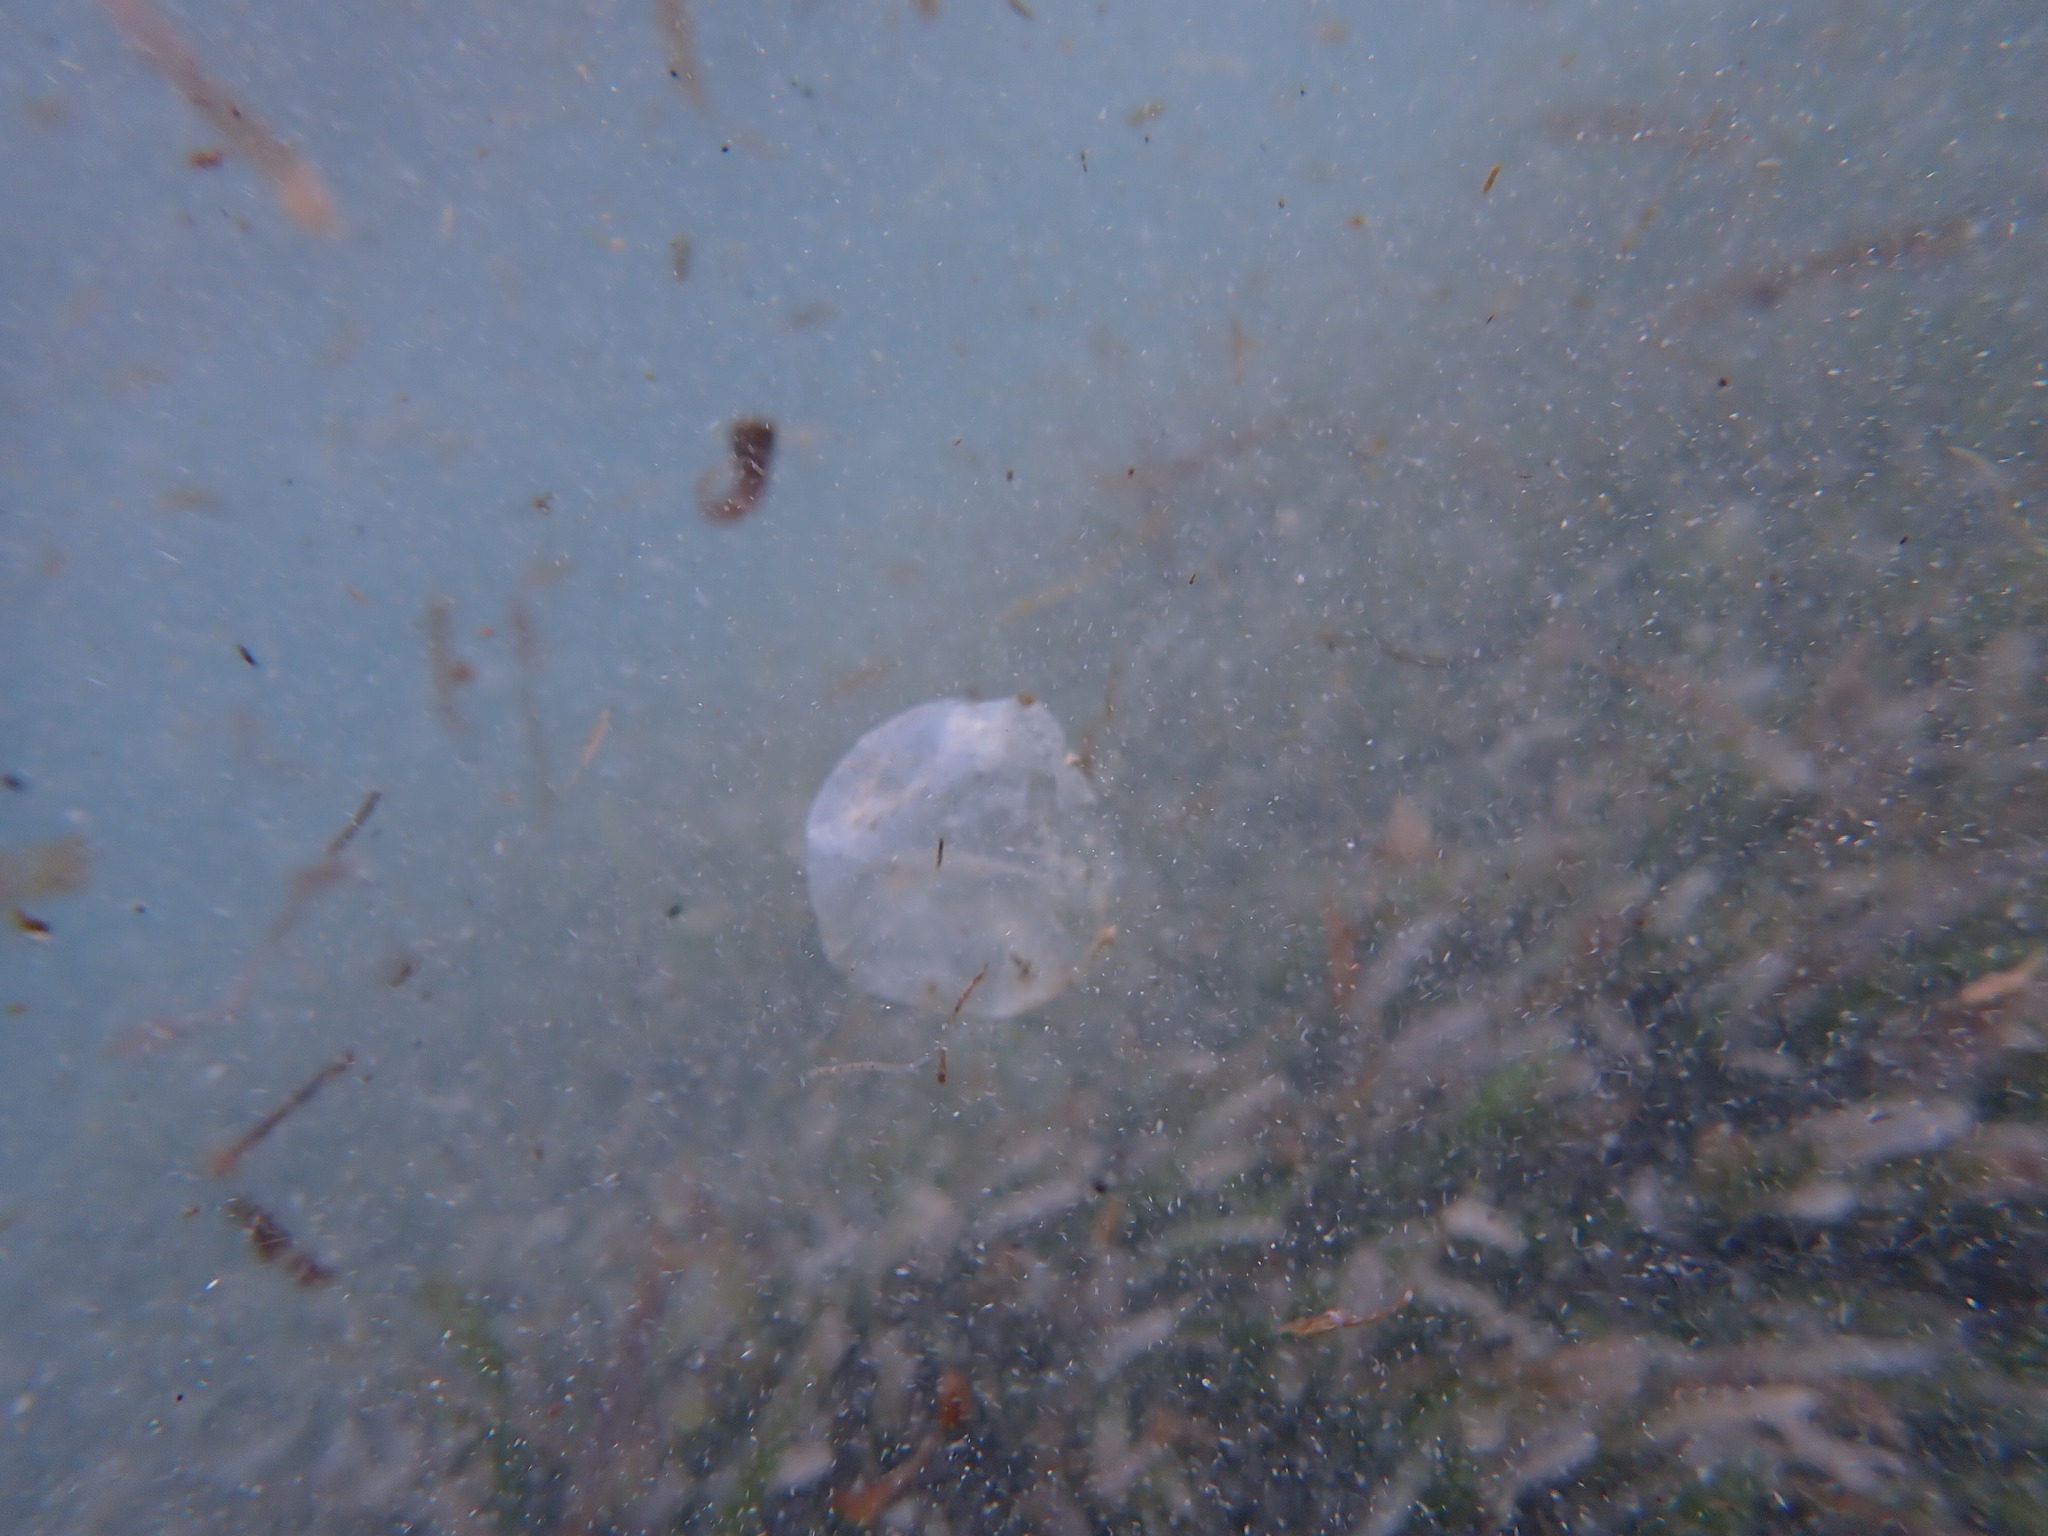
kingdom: Plantae
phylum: Chlorophyta
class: Ulvophyceae
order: Siphonocladales
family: Valoniaceae
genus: Valonia
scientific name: Valonia ventricosa
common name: Sea pearl
